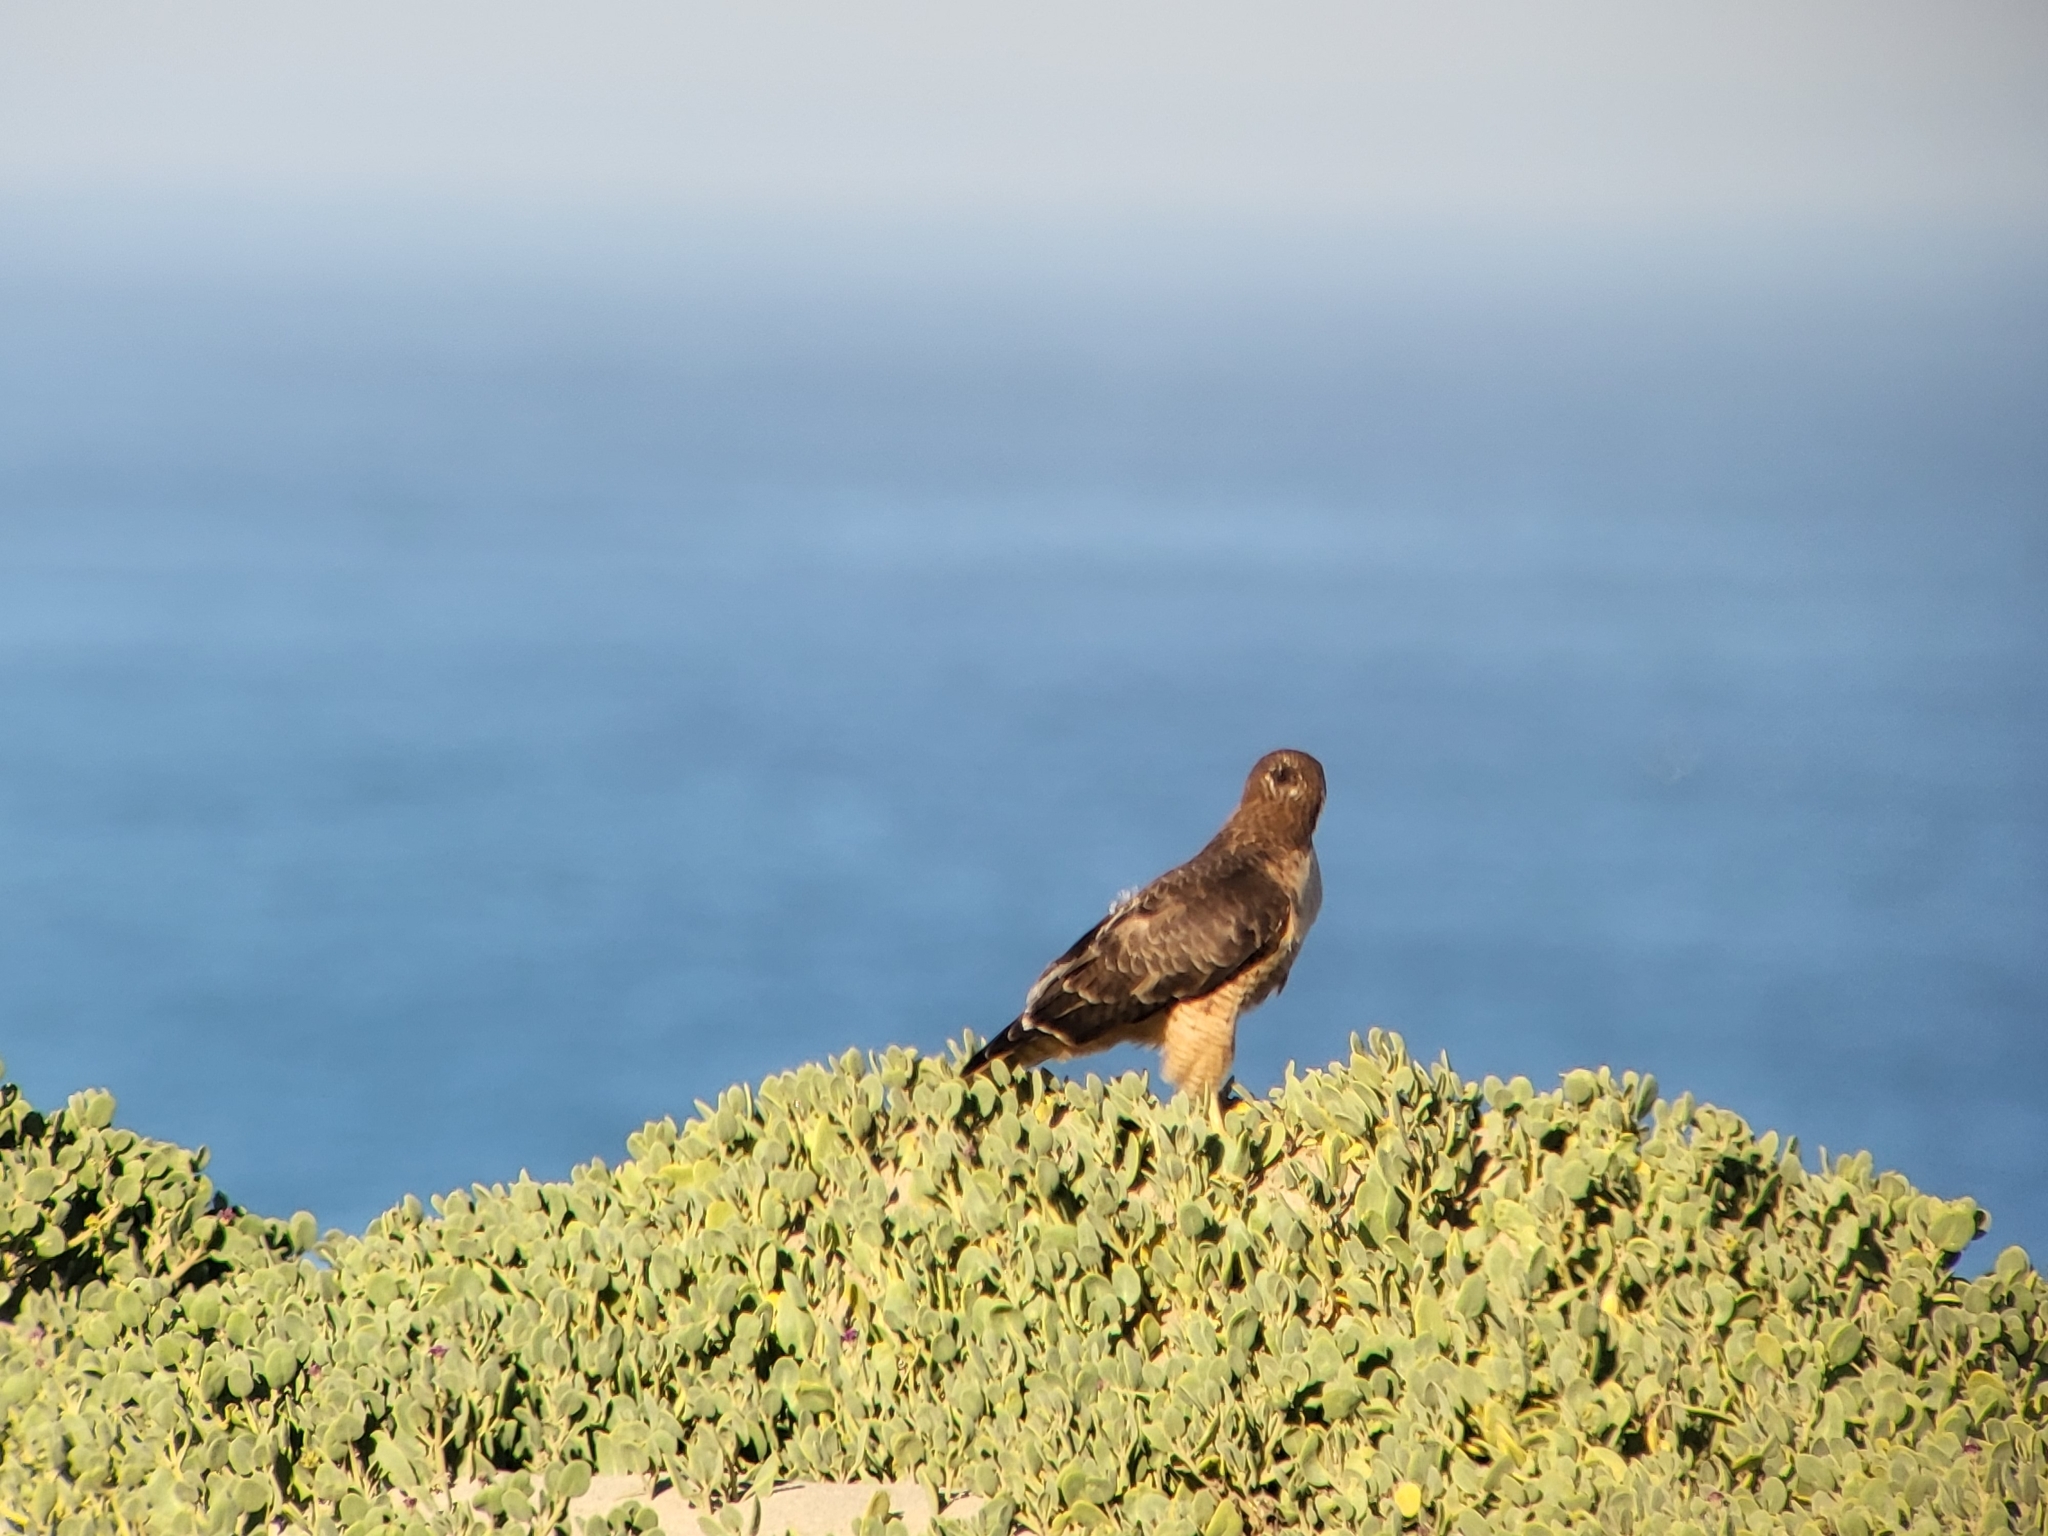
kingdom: Animalia
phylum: Chordata
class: Aves
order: Accipitriformes
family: Accipitridae
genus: Buteo
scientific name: Buteo jamaicensis
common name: Red-tailed hawk
